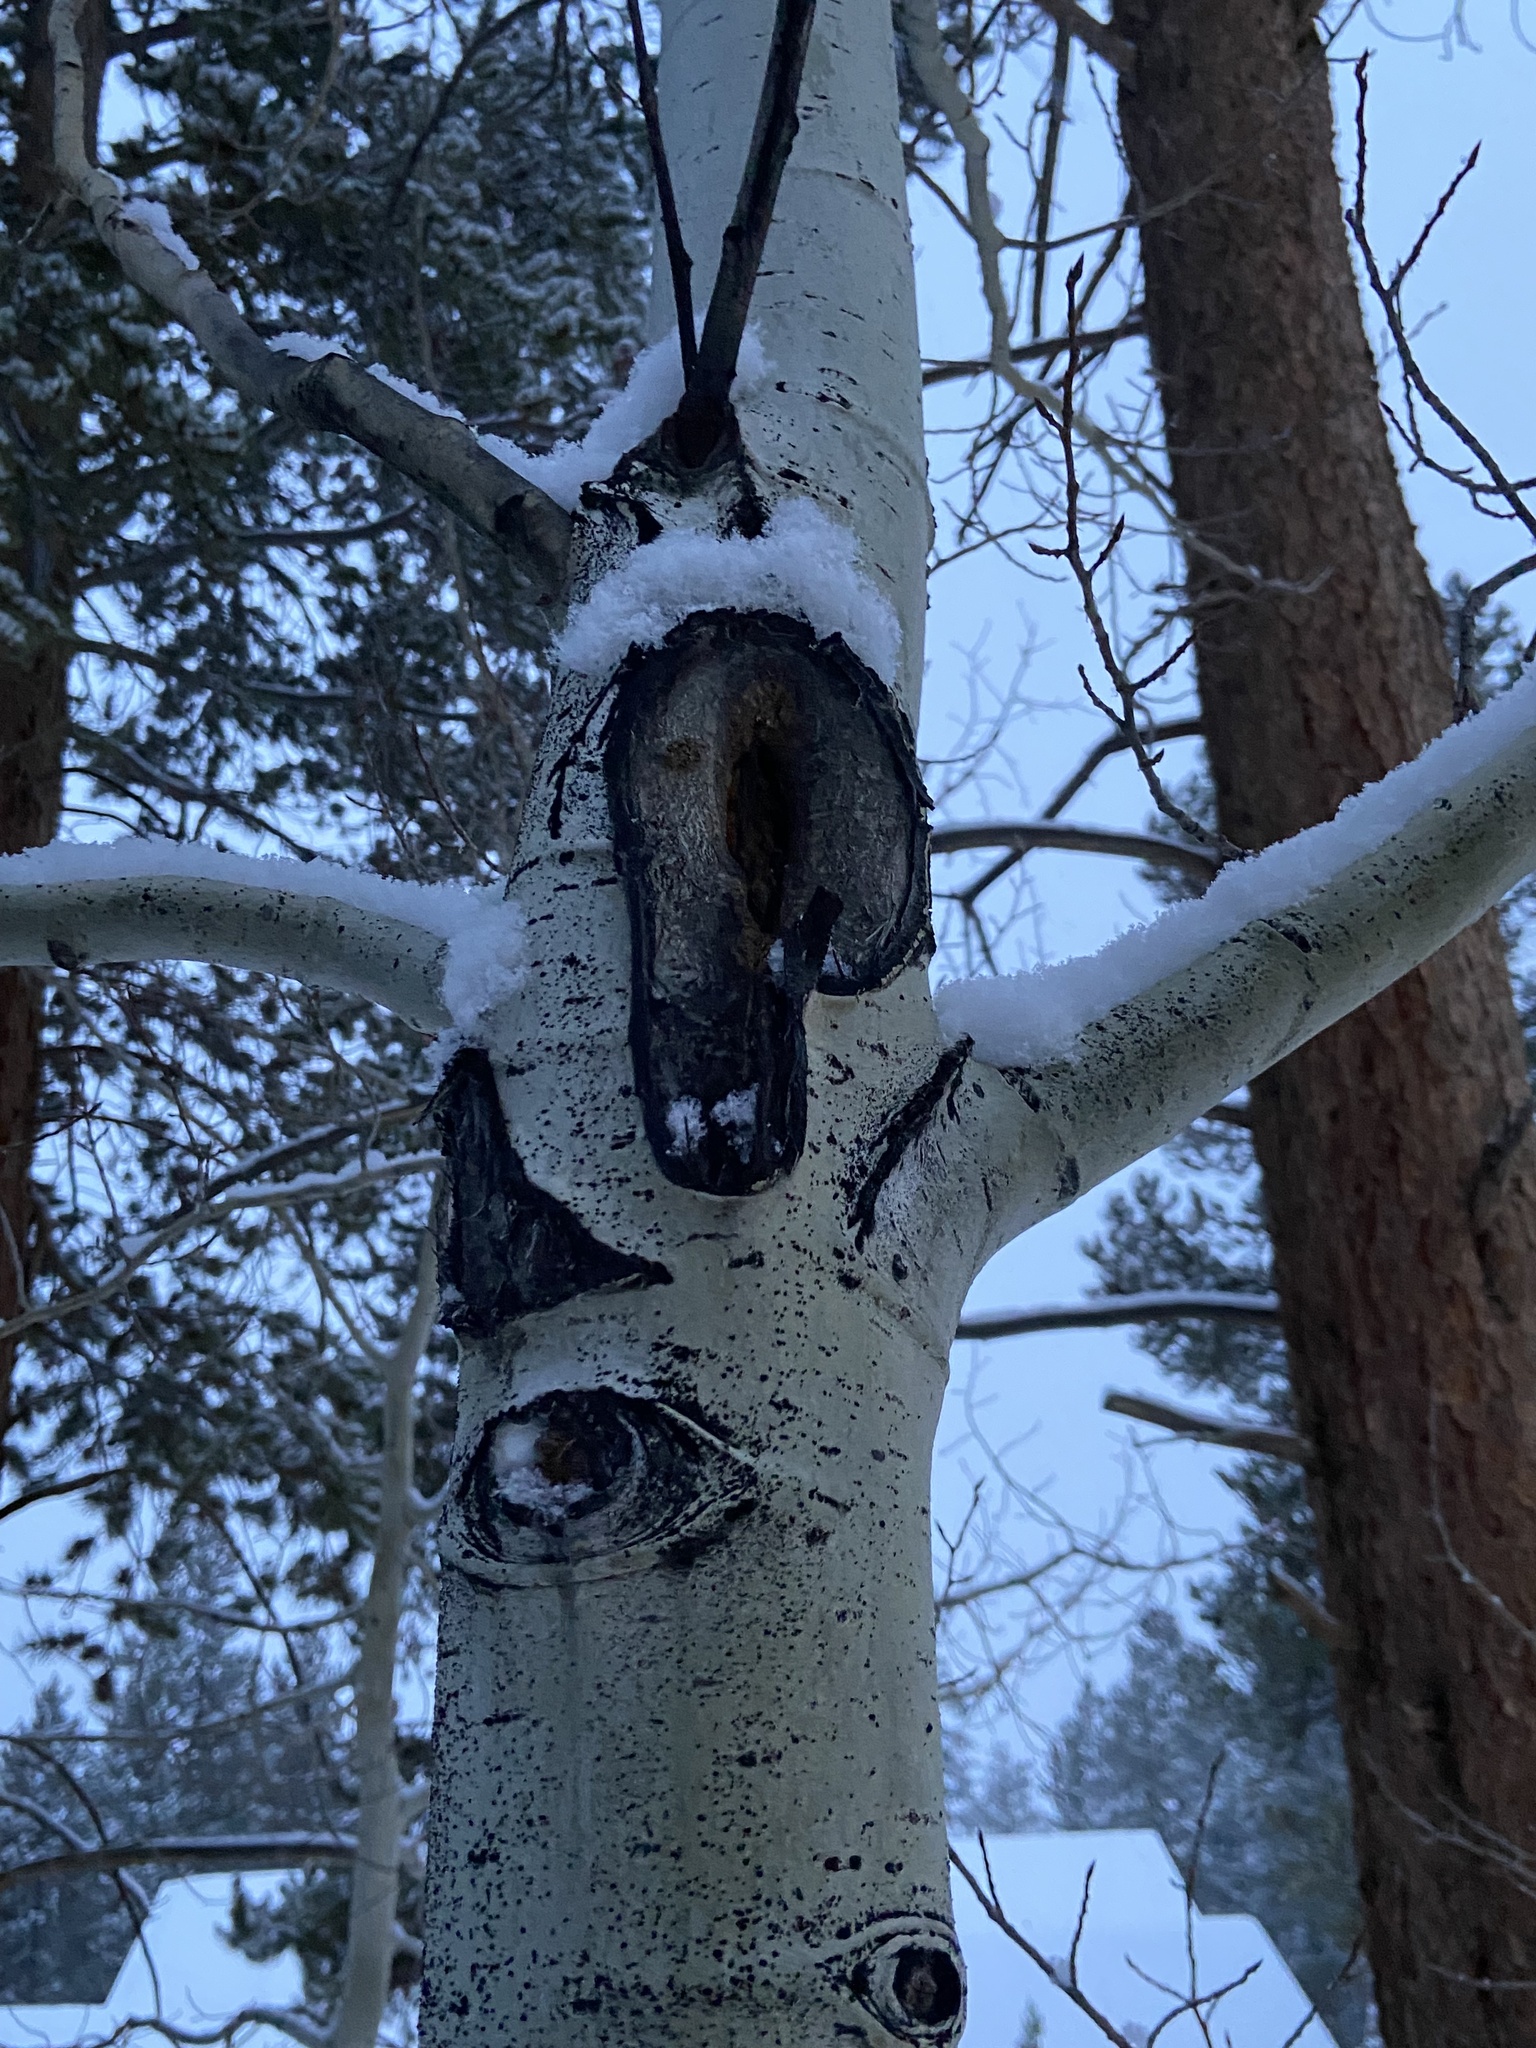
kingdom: Plantae
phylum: Tracheophyta
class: Magnoliopsida
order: Malpighiales
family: Salicaceae
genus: Populus
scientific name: Populus tremuloides
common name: Quaking aspen
